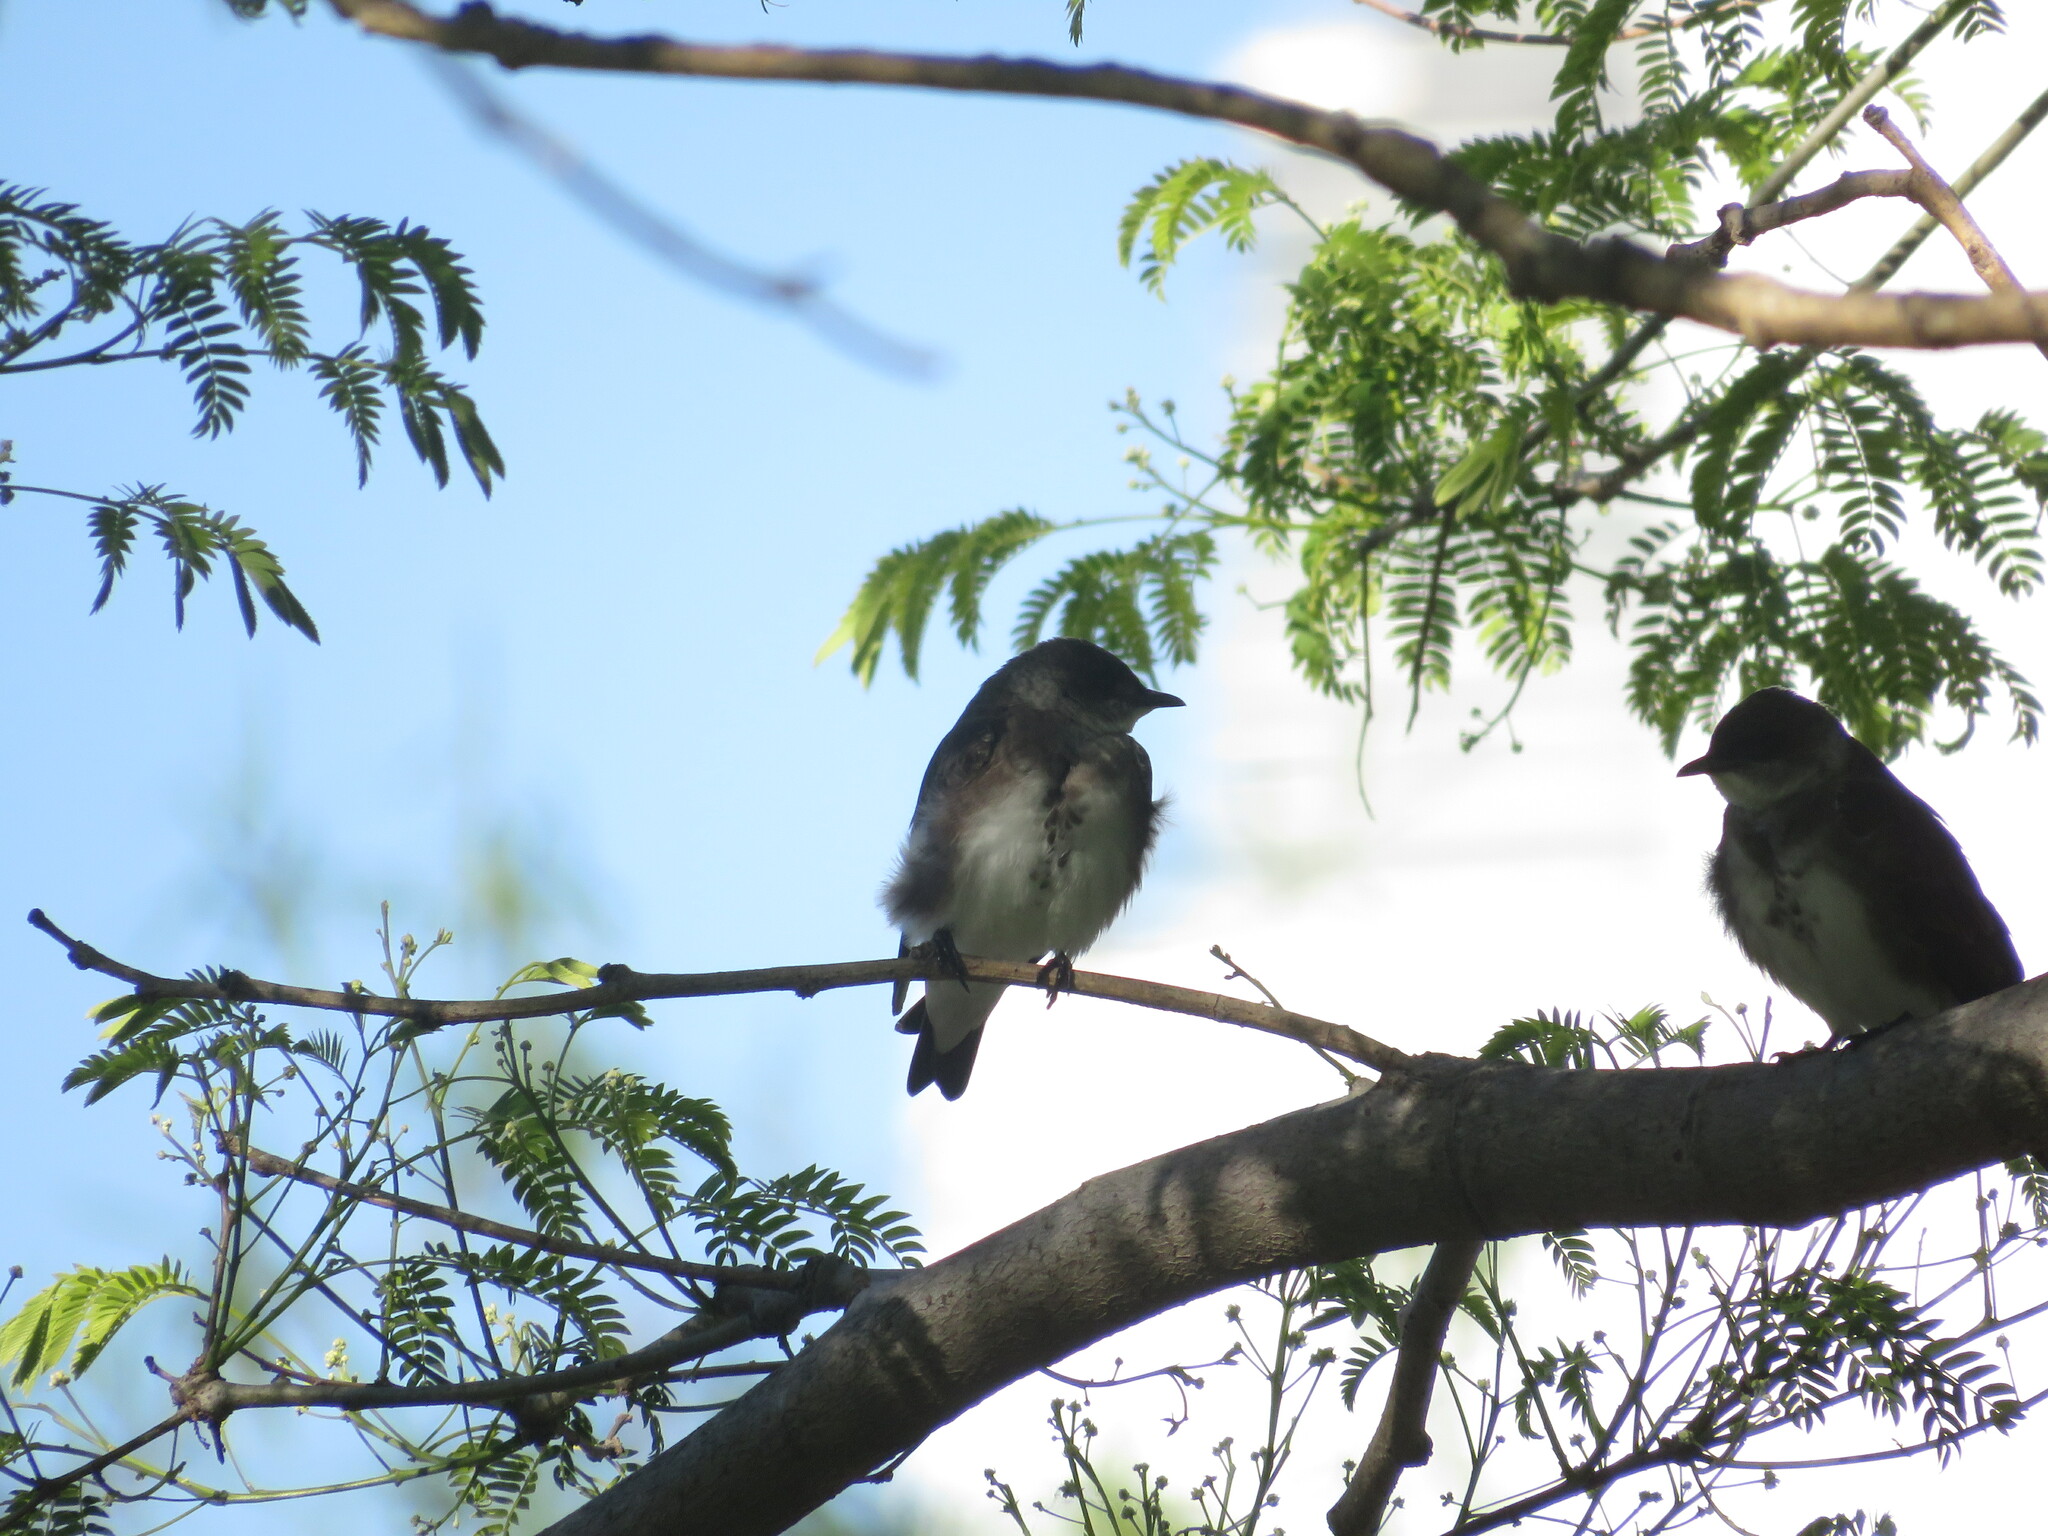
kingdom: Animalia
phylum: Chordata
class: Aves
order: Passeriformes
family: Hirundinidae
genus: Progne
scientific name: Progne tapera
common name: Brown-chested martin
